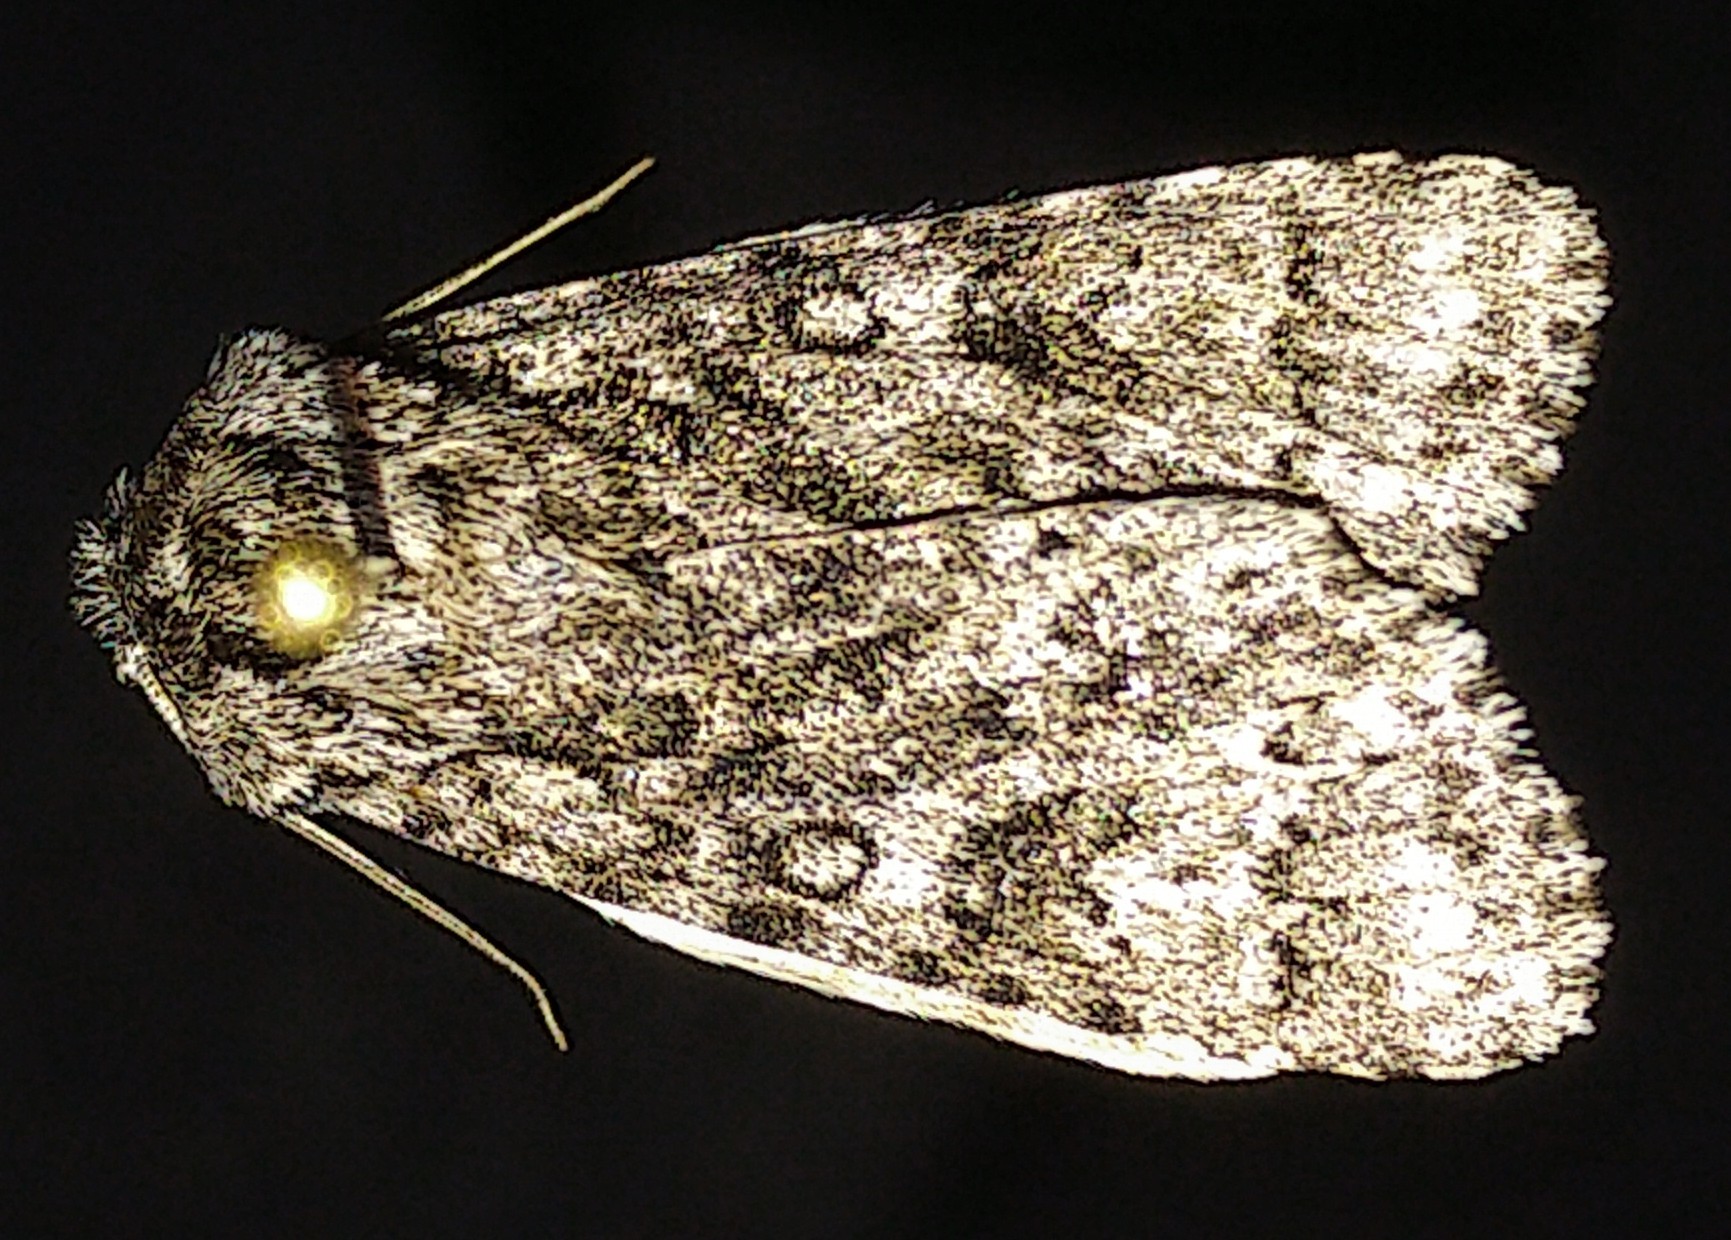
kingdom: Animalia
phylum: Arthropoda
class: Insecta
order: Lepidoptera
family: Noctuidae
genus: Acronicta
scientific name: Acronicta impressa
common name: Impressed dagger
